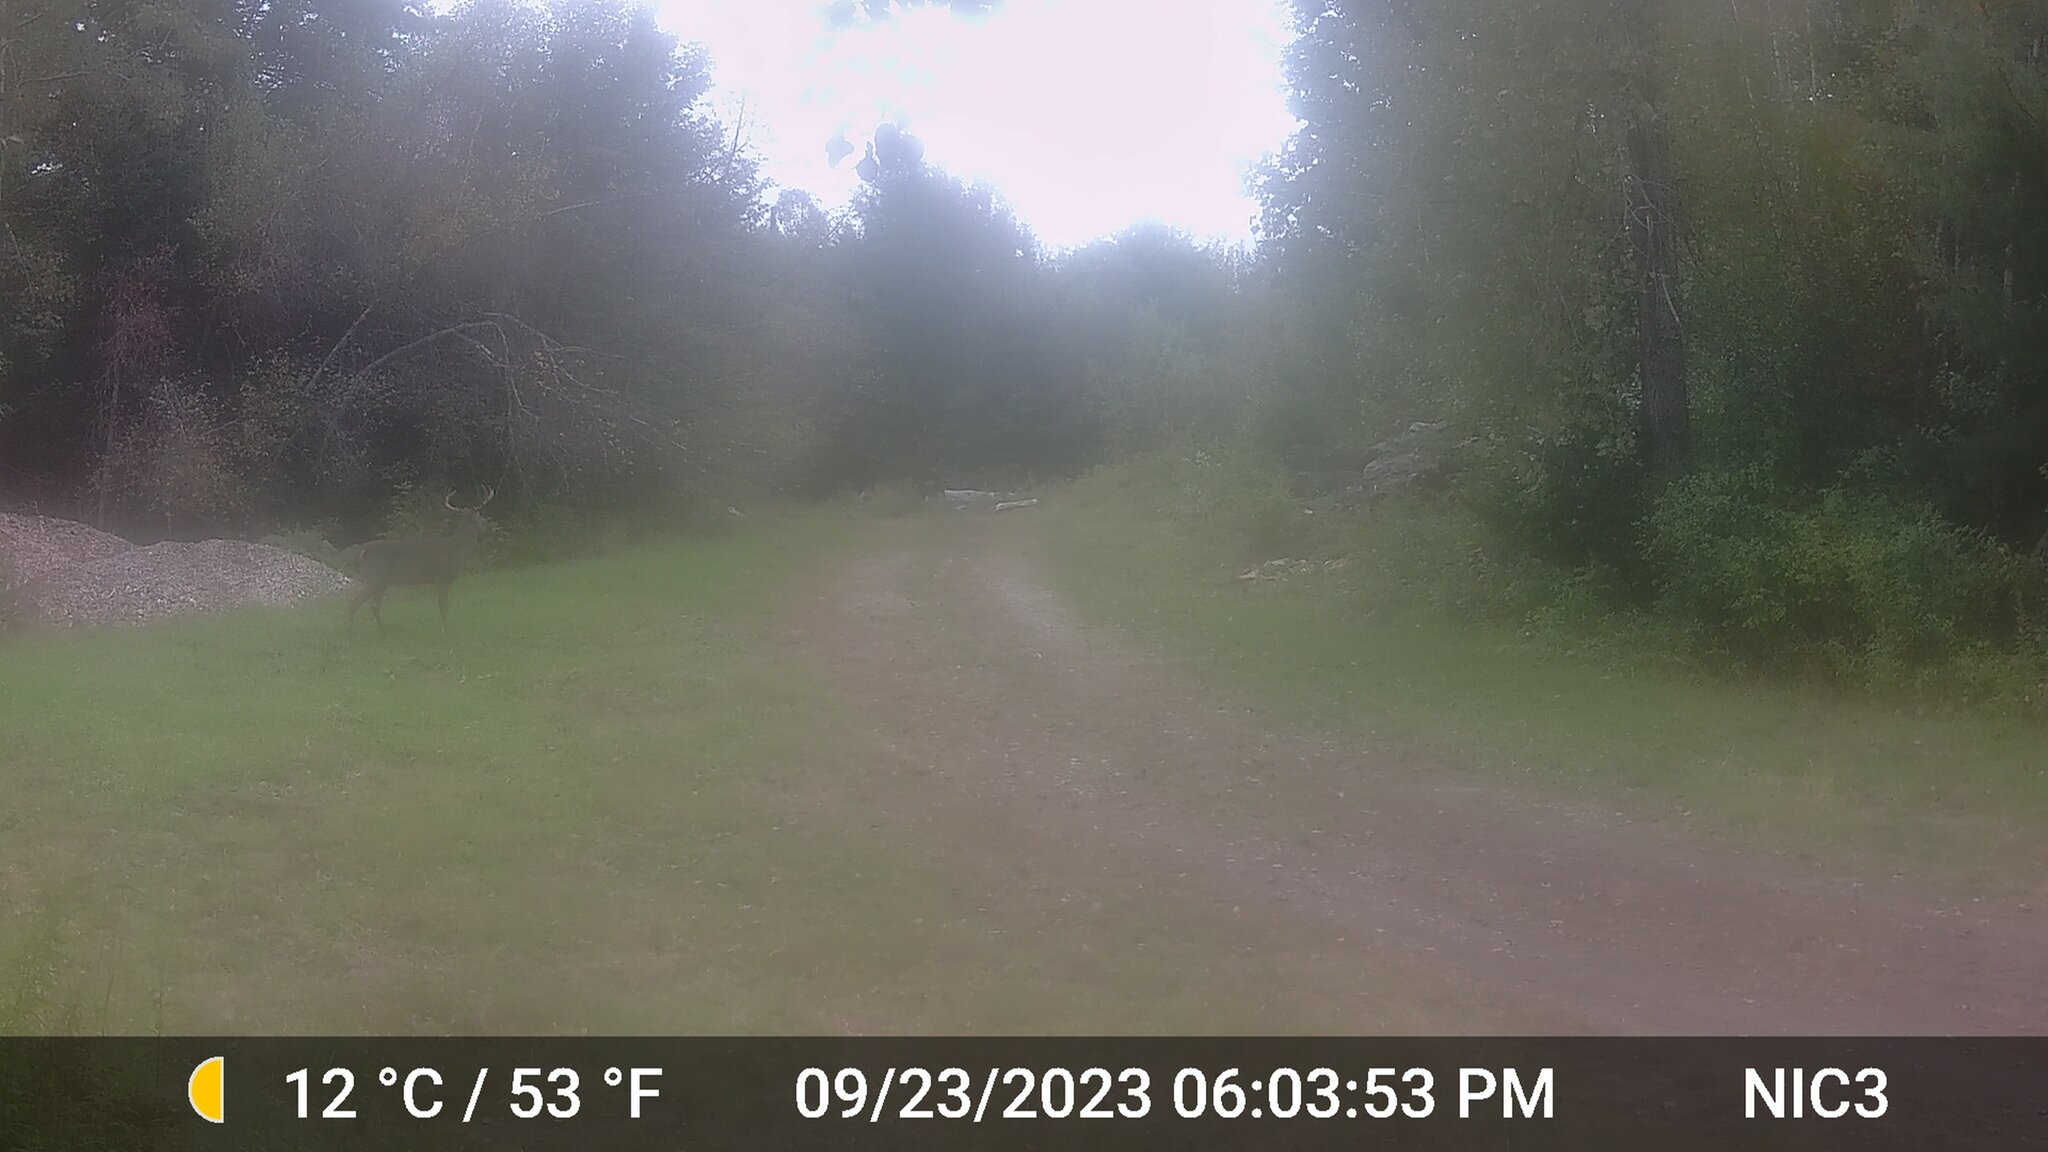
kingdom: Animalia
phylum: Chordata
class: Mammalia
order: Artiodactyla
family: Cervidae
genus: Odocoileus
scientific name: Odocoileus virginianus
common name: White-tailed deer
